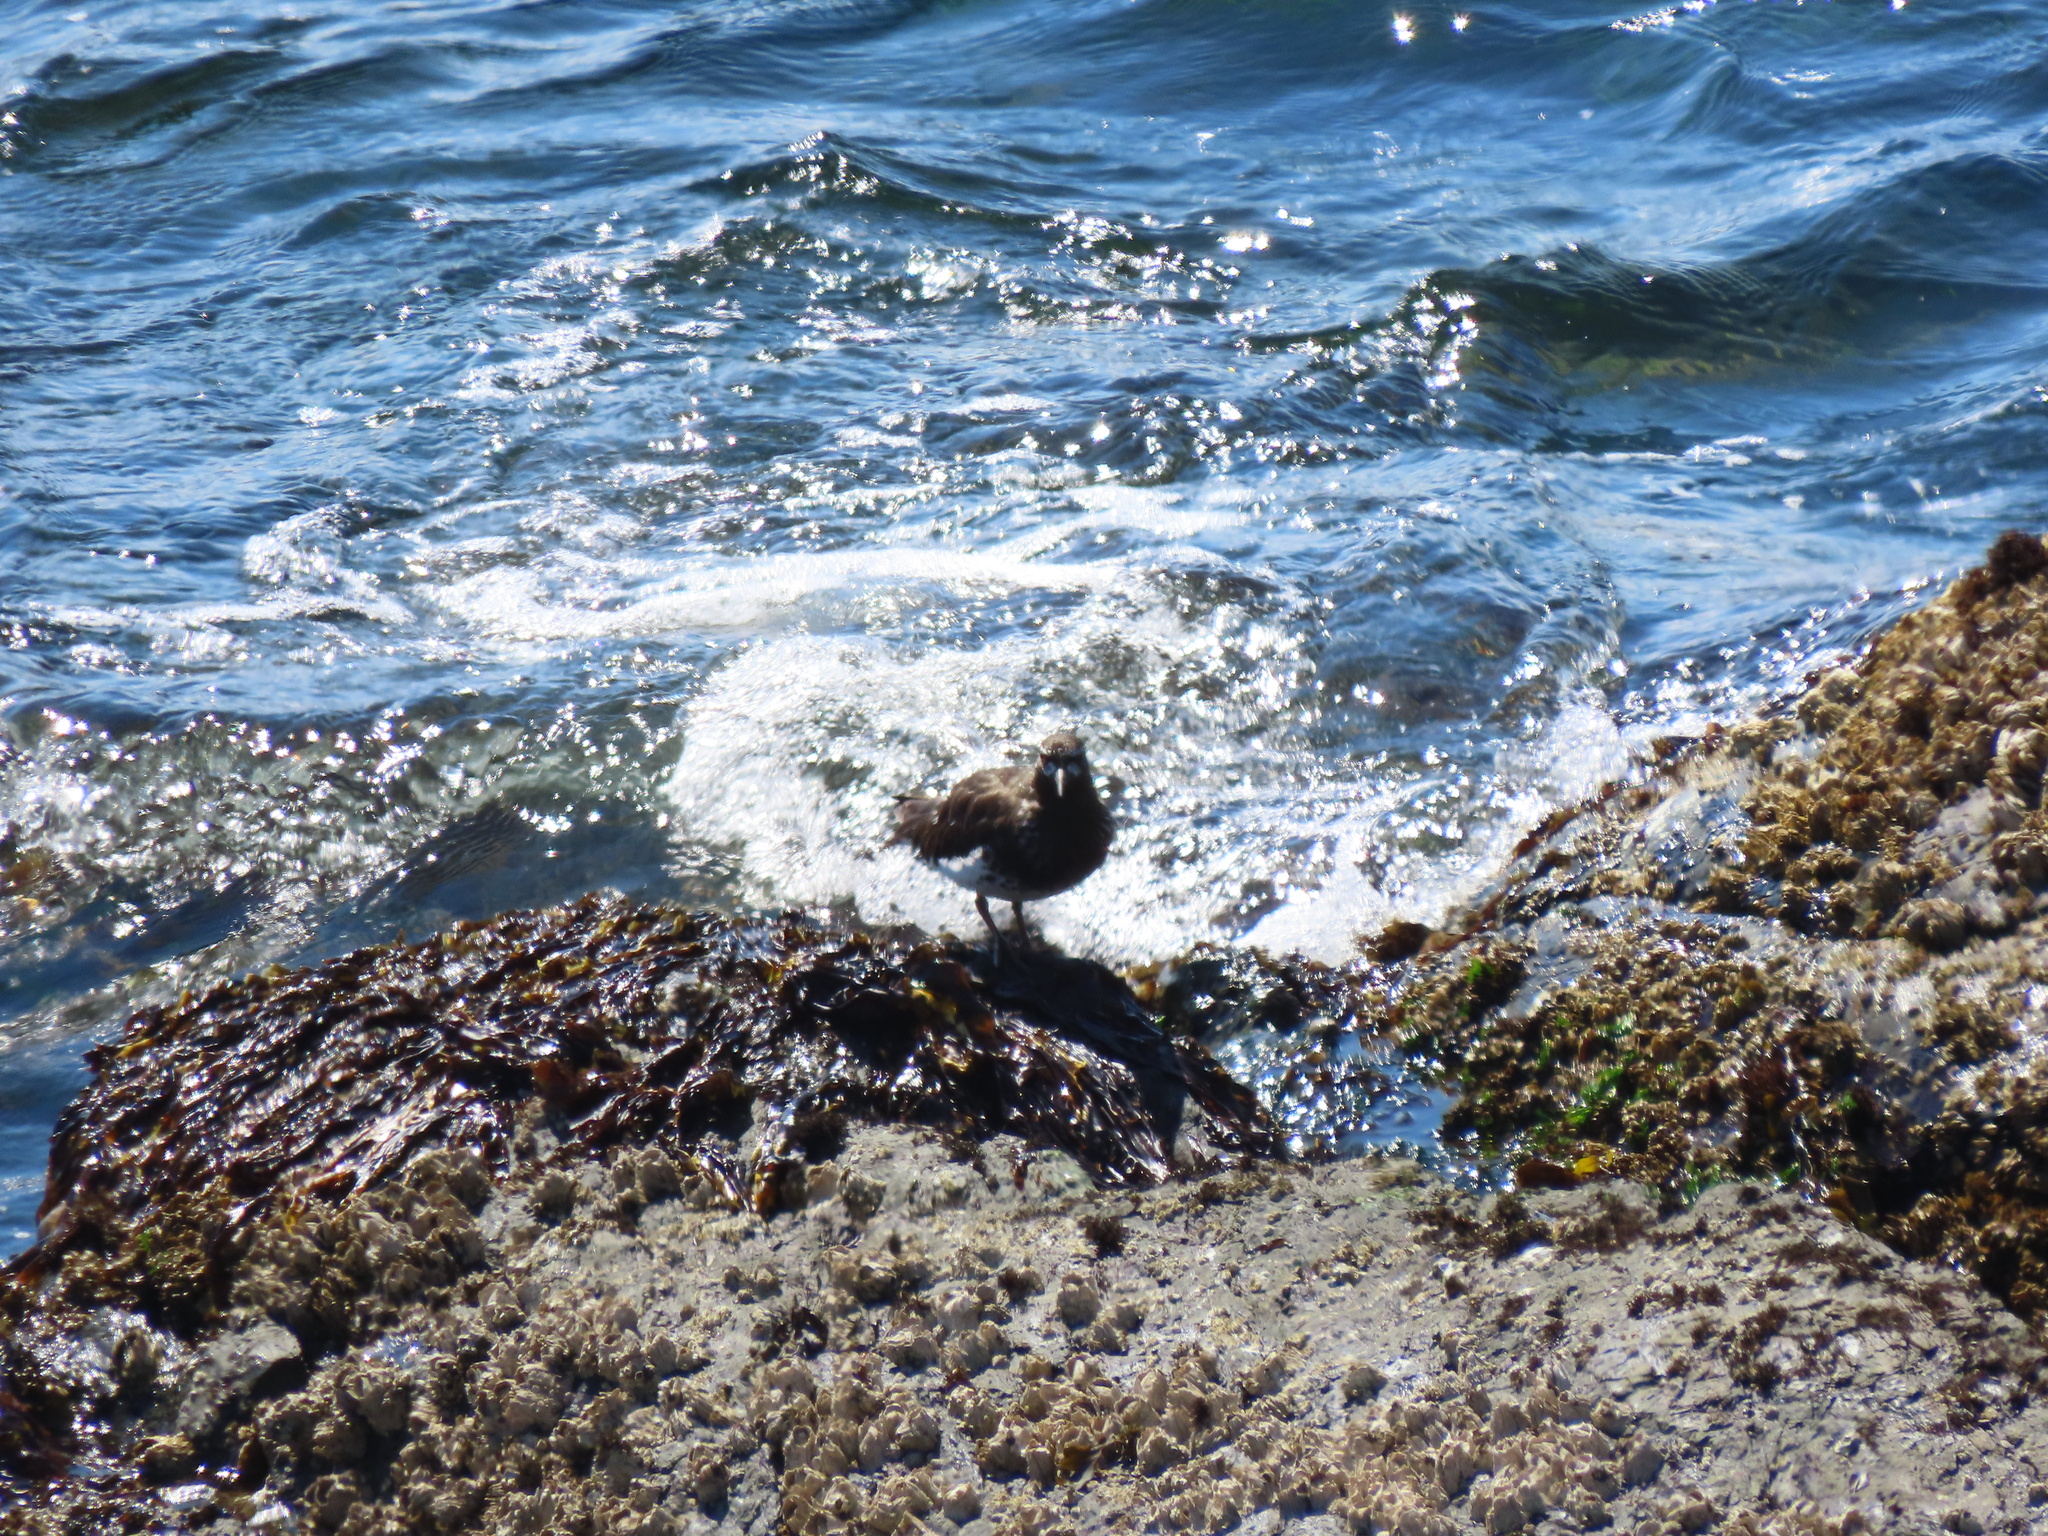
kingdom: Animalia
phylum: Chordata
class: Aves
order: Charadriiformes
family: Scolopacidae
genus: Arenaria
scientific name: Arenaria melanocephala
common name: Black turnstone
